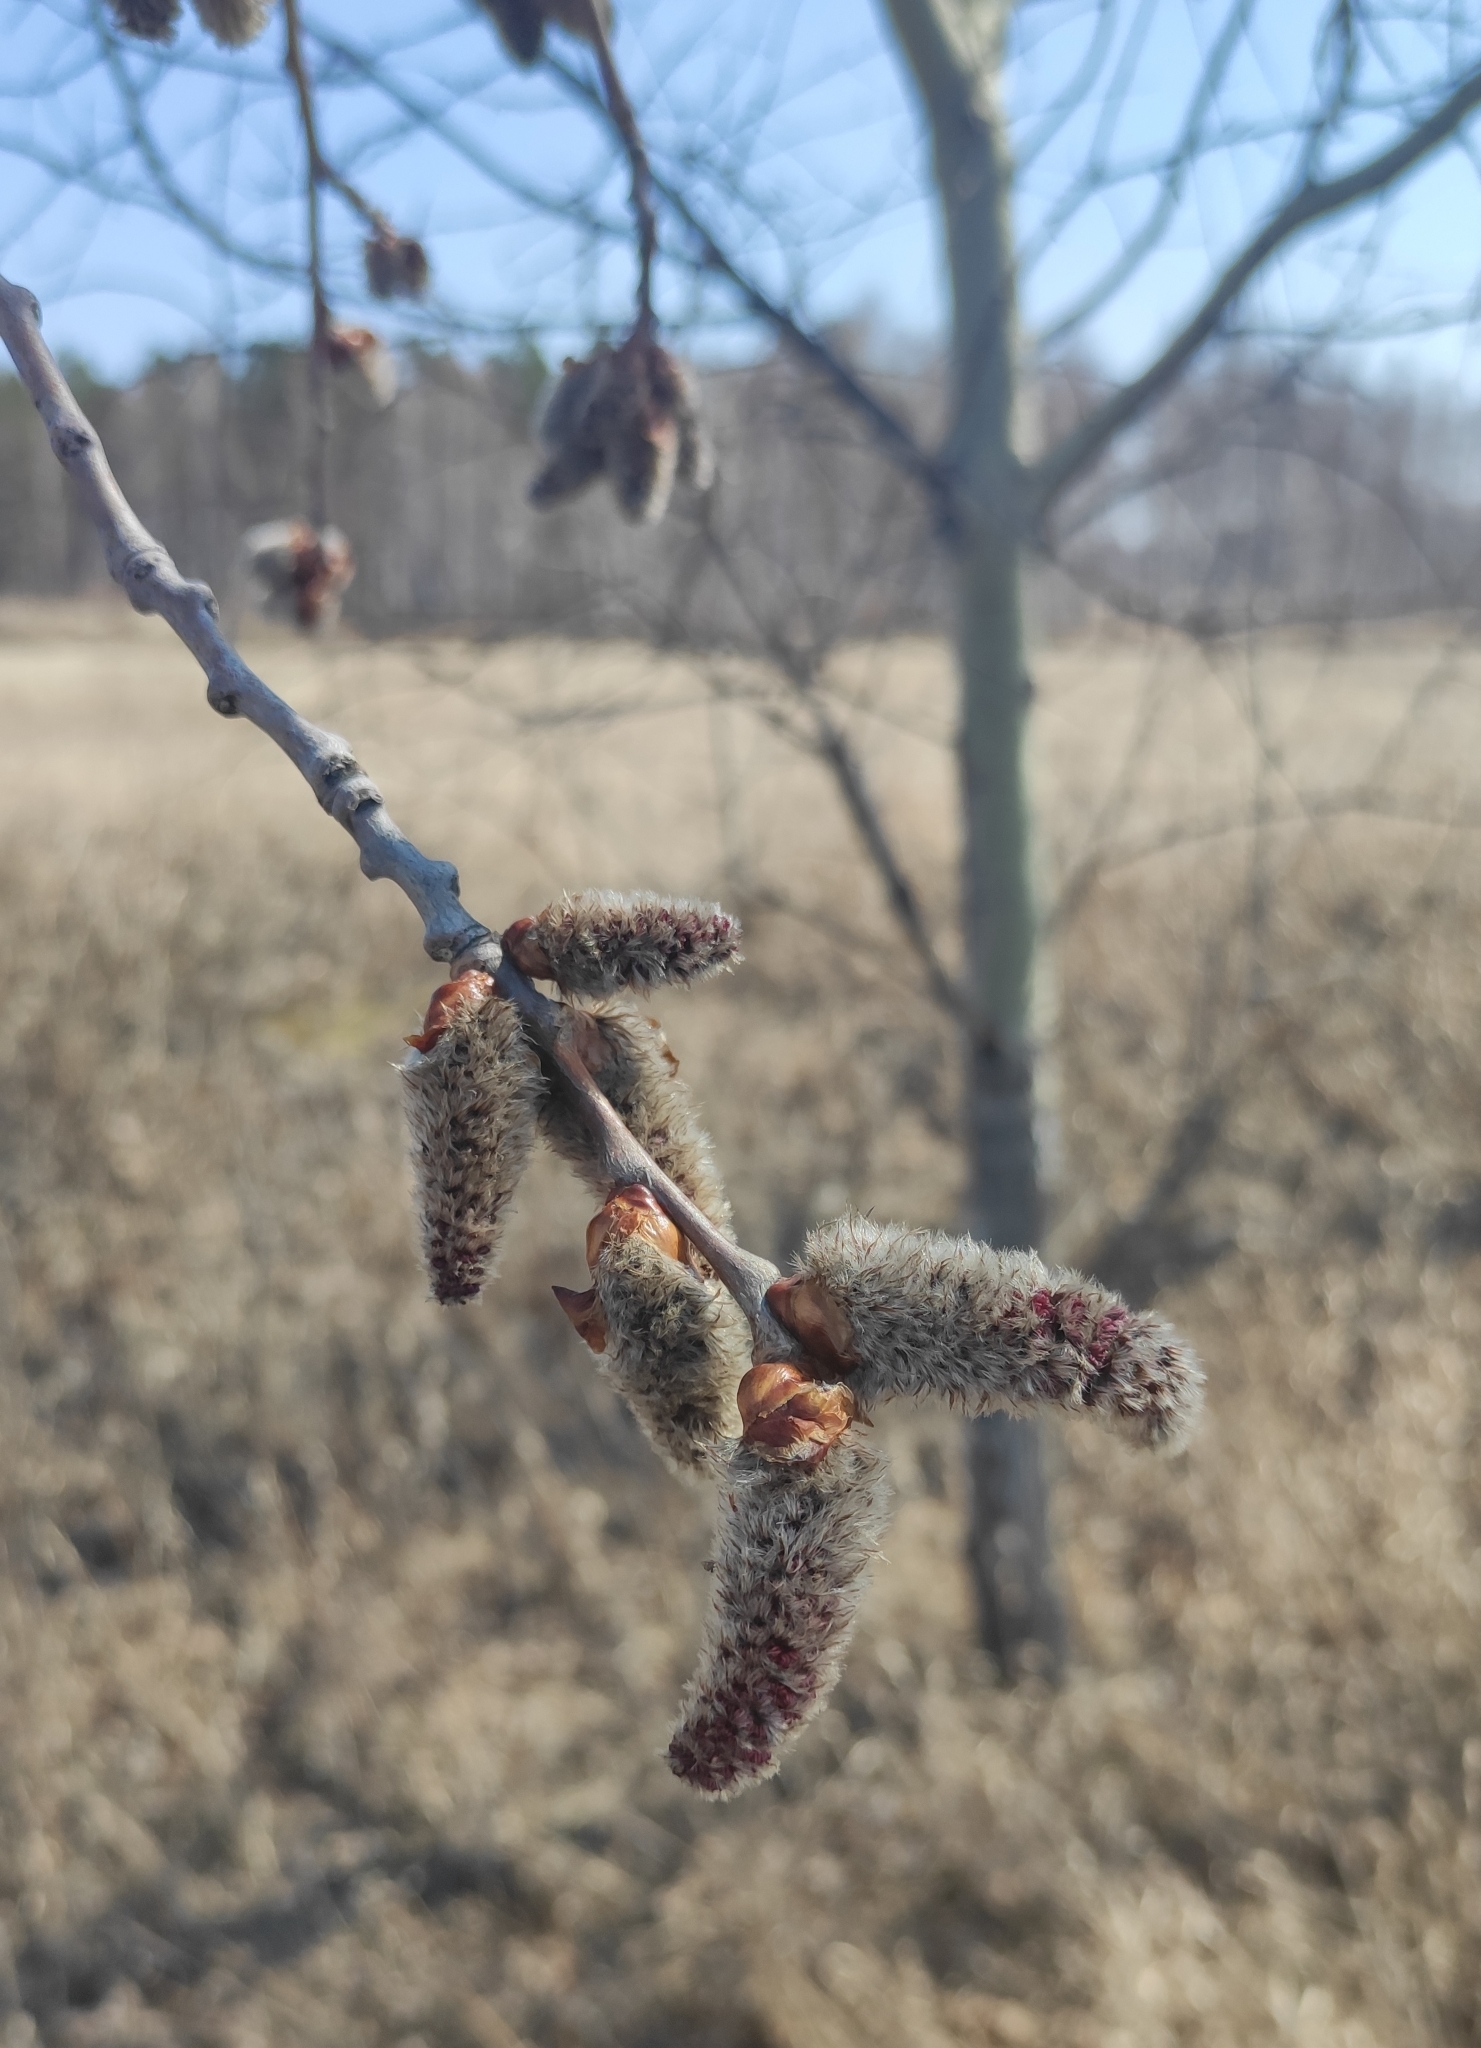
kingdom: Plantae
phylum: Tracheophyta
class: Magnoliopsida
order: Malpighiales
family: Salicaceae
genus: Populus
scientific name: Populus tremula
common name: European aspen
